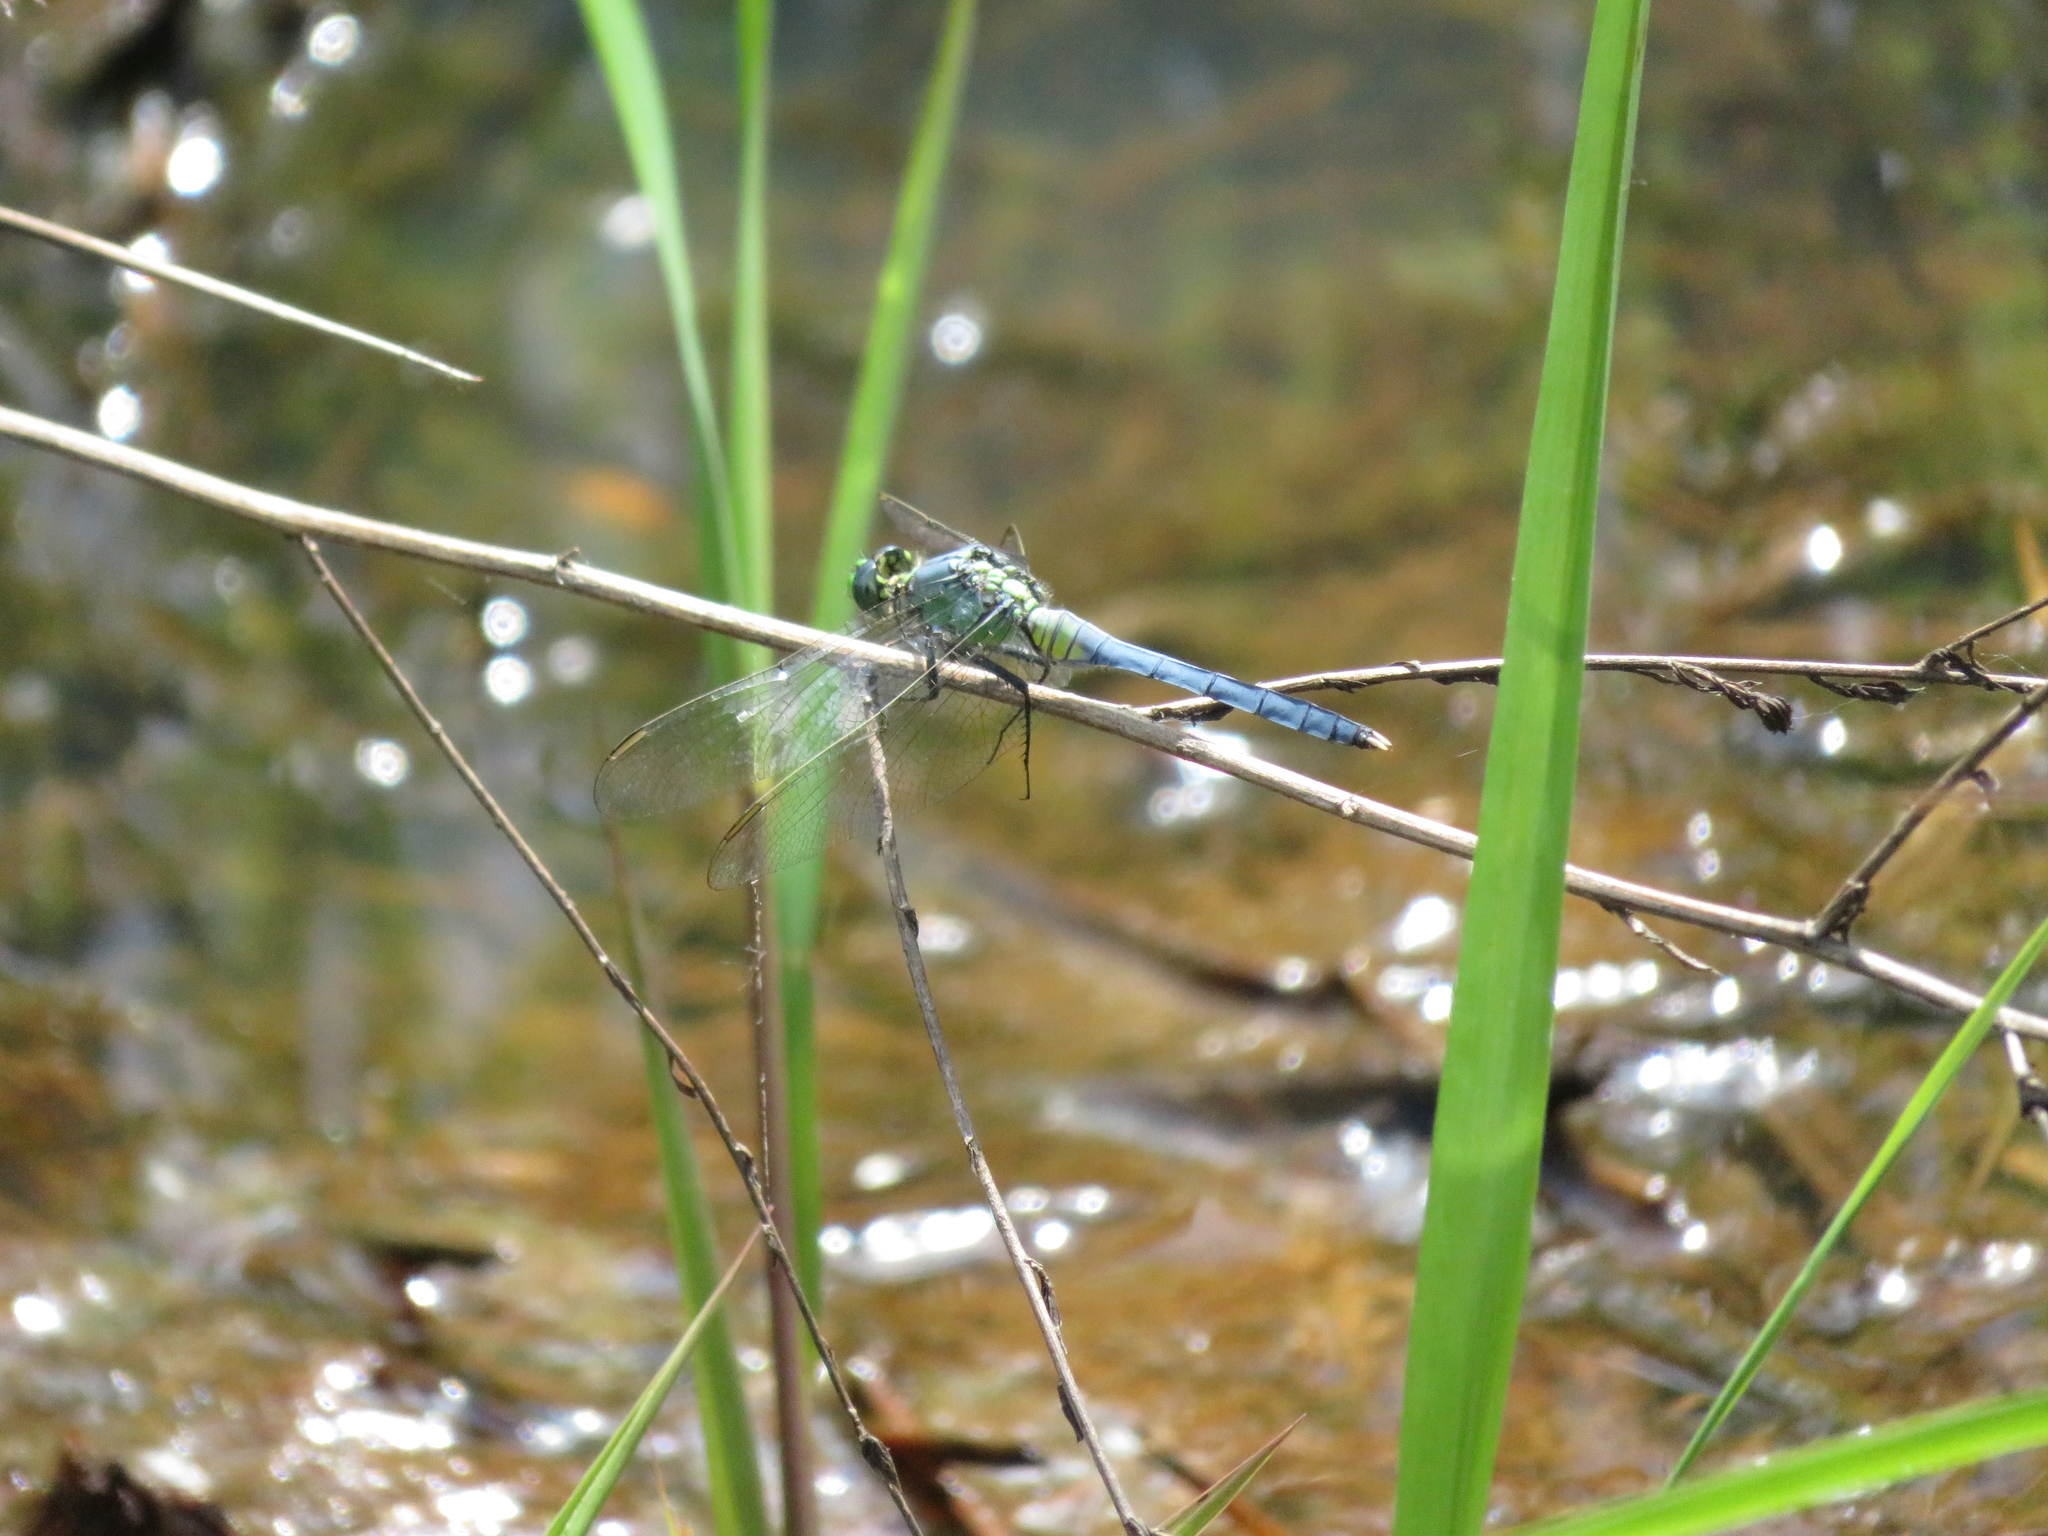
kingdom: Animalia
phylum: Arthropoda
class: Insecta
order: Odonata
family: Libellulidae
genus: Erythemis
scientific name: Erythemis simplicicollis
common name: Eastern pondhawk
